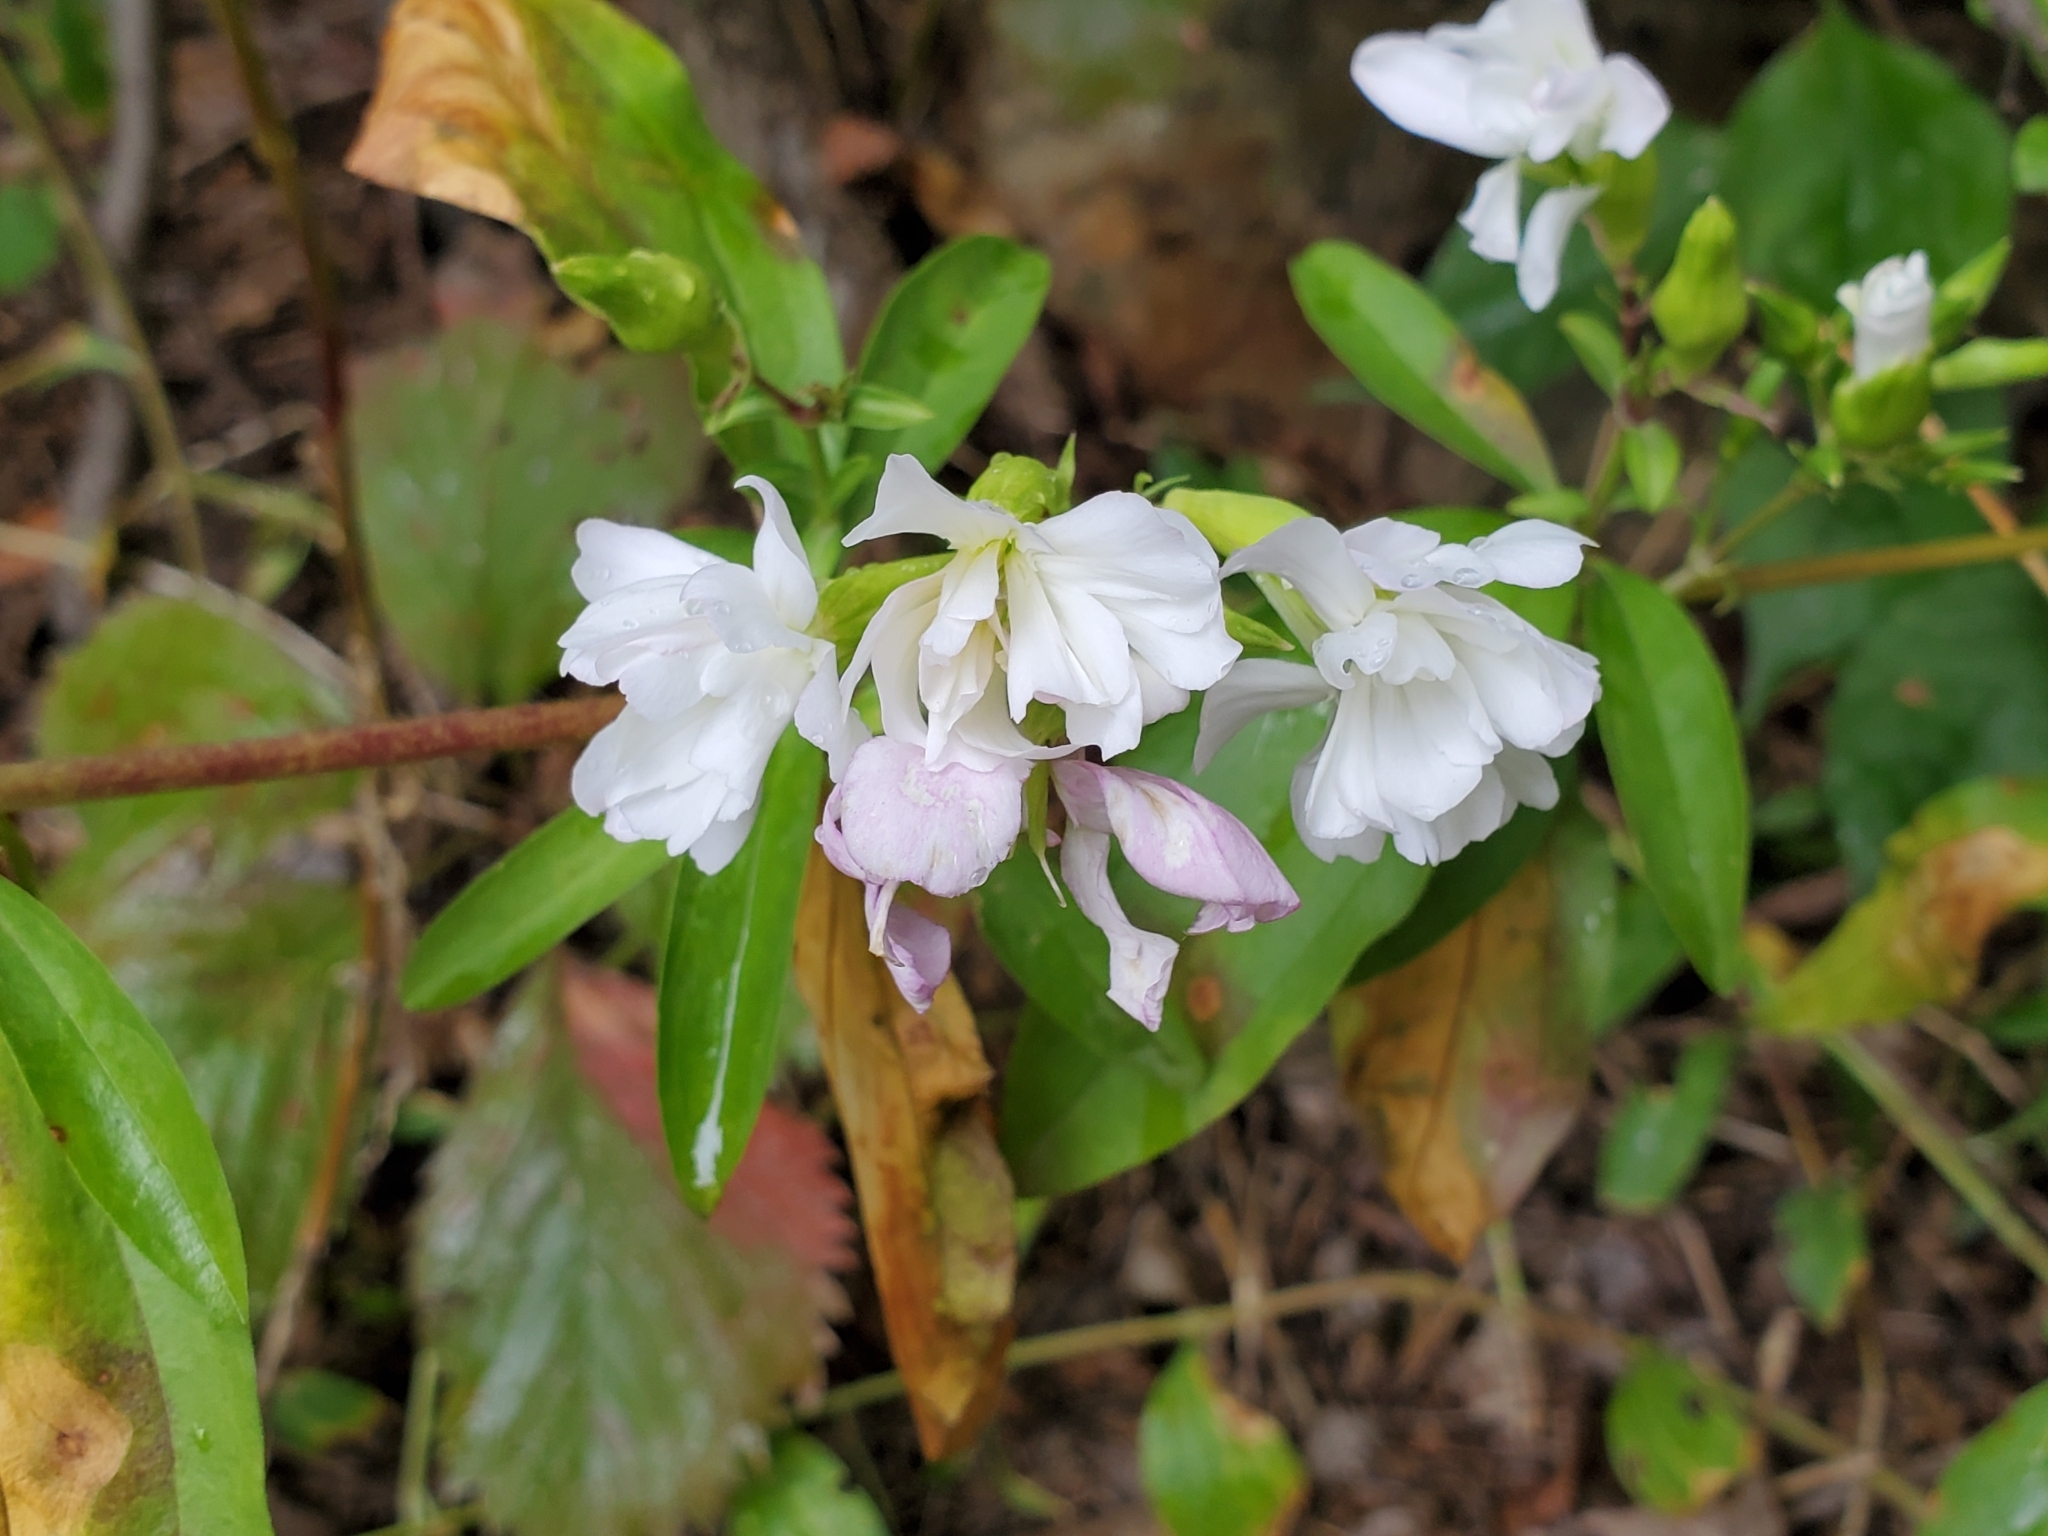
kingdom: Plantae
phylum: Tracheophyta
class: Magnoliopsida
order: Caryophyllales
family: Caryophyllaceae
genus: Saponaria
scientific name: Saponaria officinalis
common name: Soapwort
